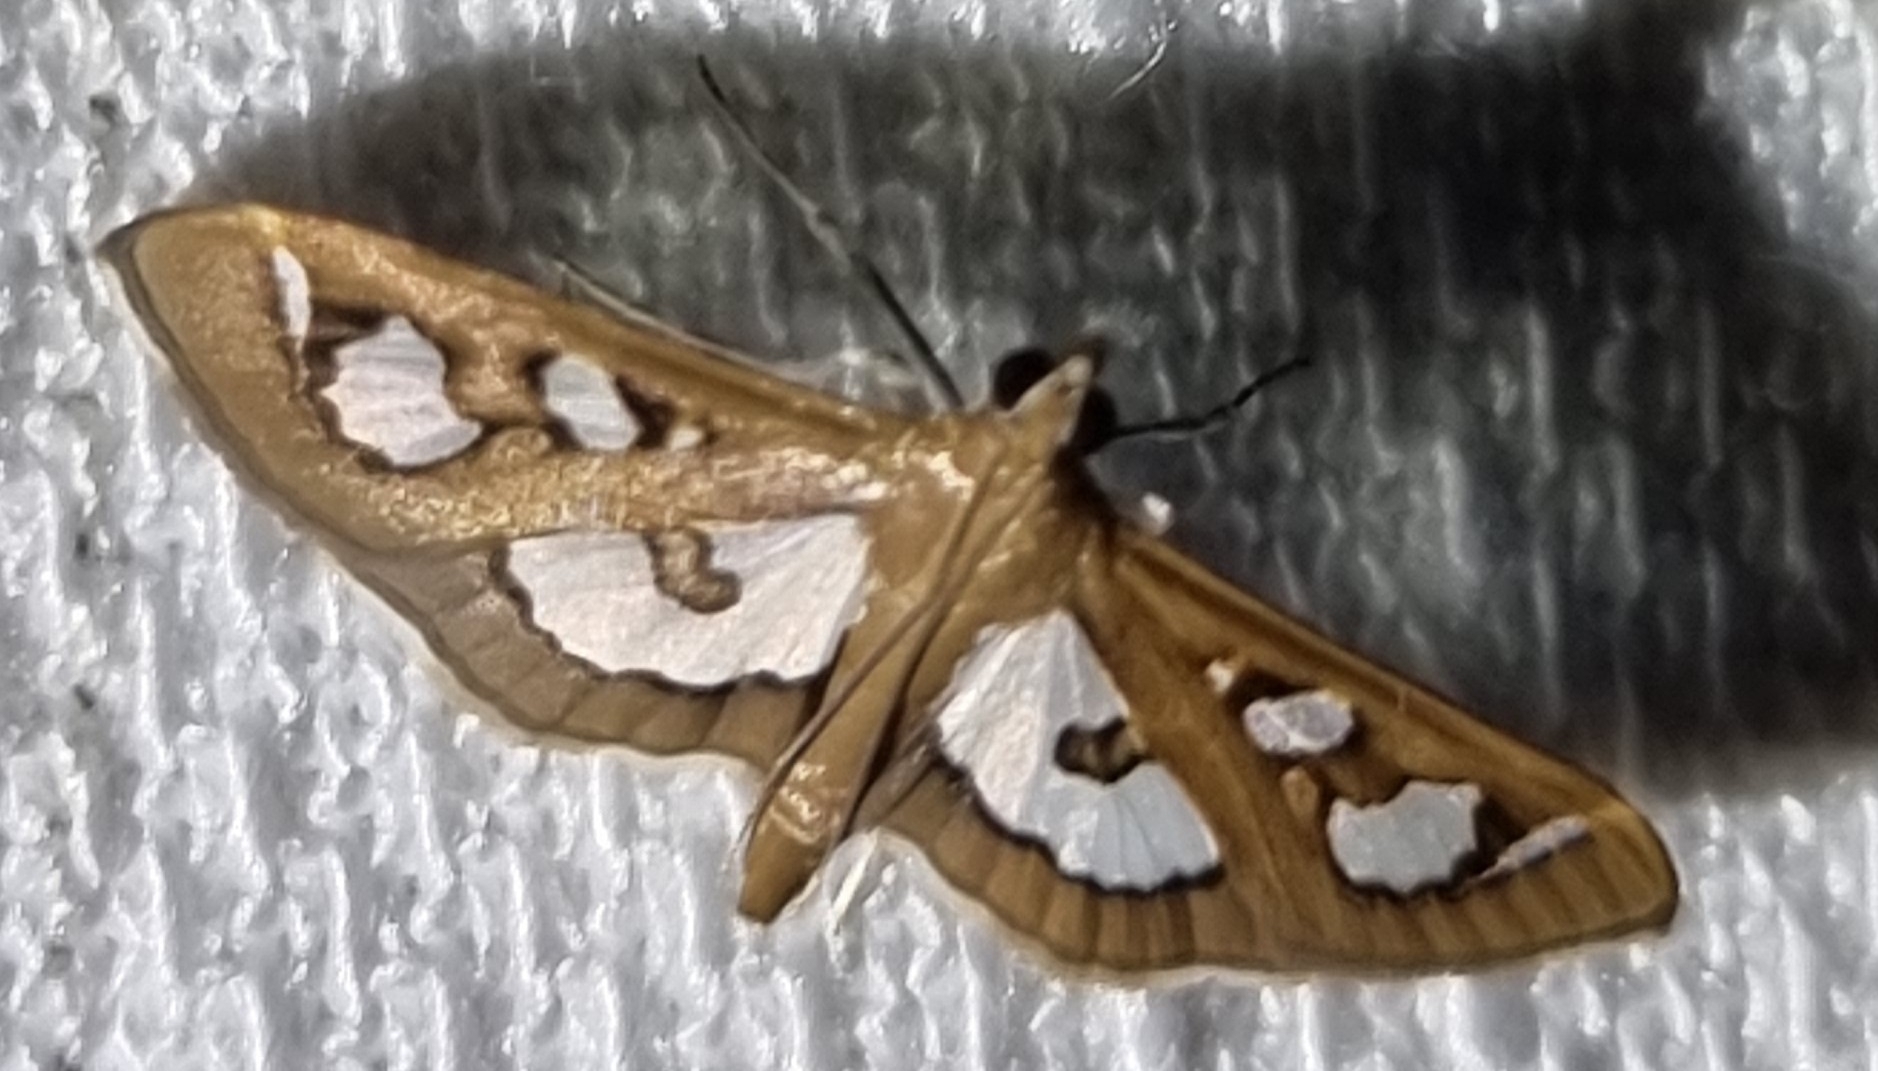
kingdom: Animalia
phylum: Arthropoda
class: Insecta
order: Lepidoptera
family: Crambidae
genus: Glyphodes
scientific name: Glyphodes microta
